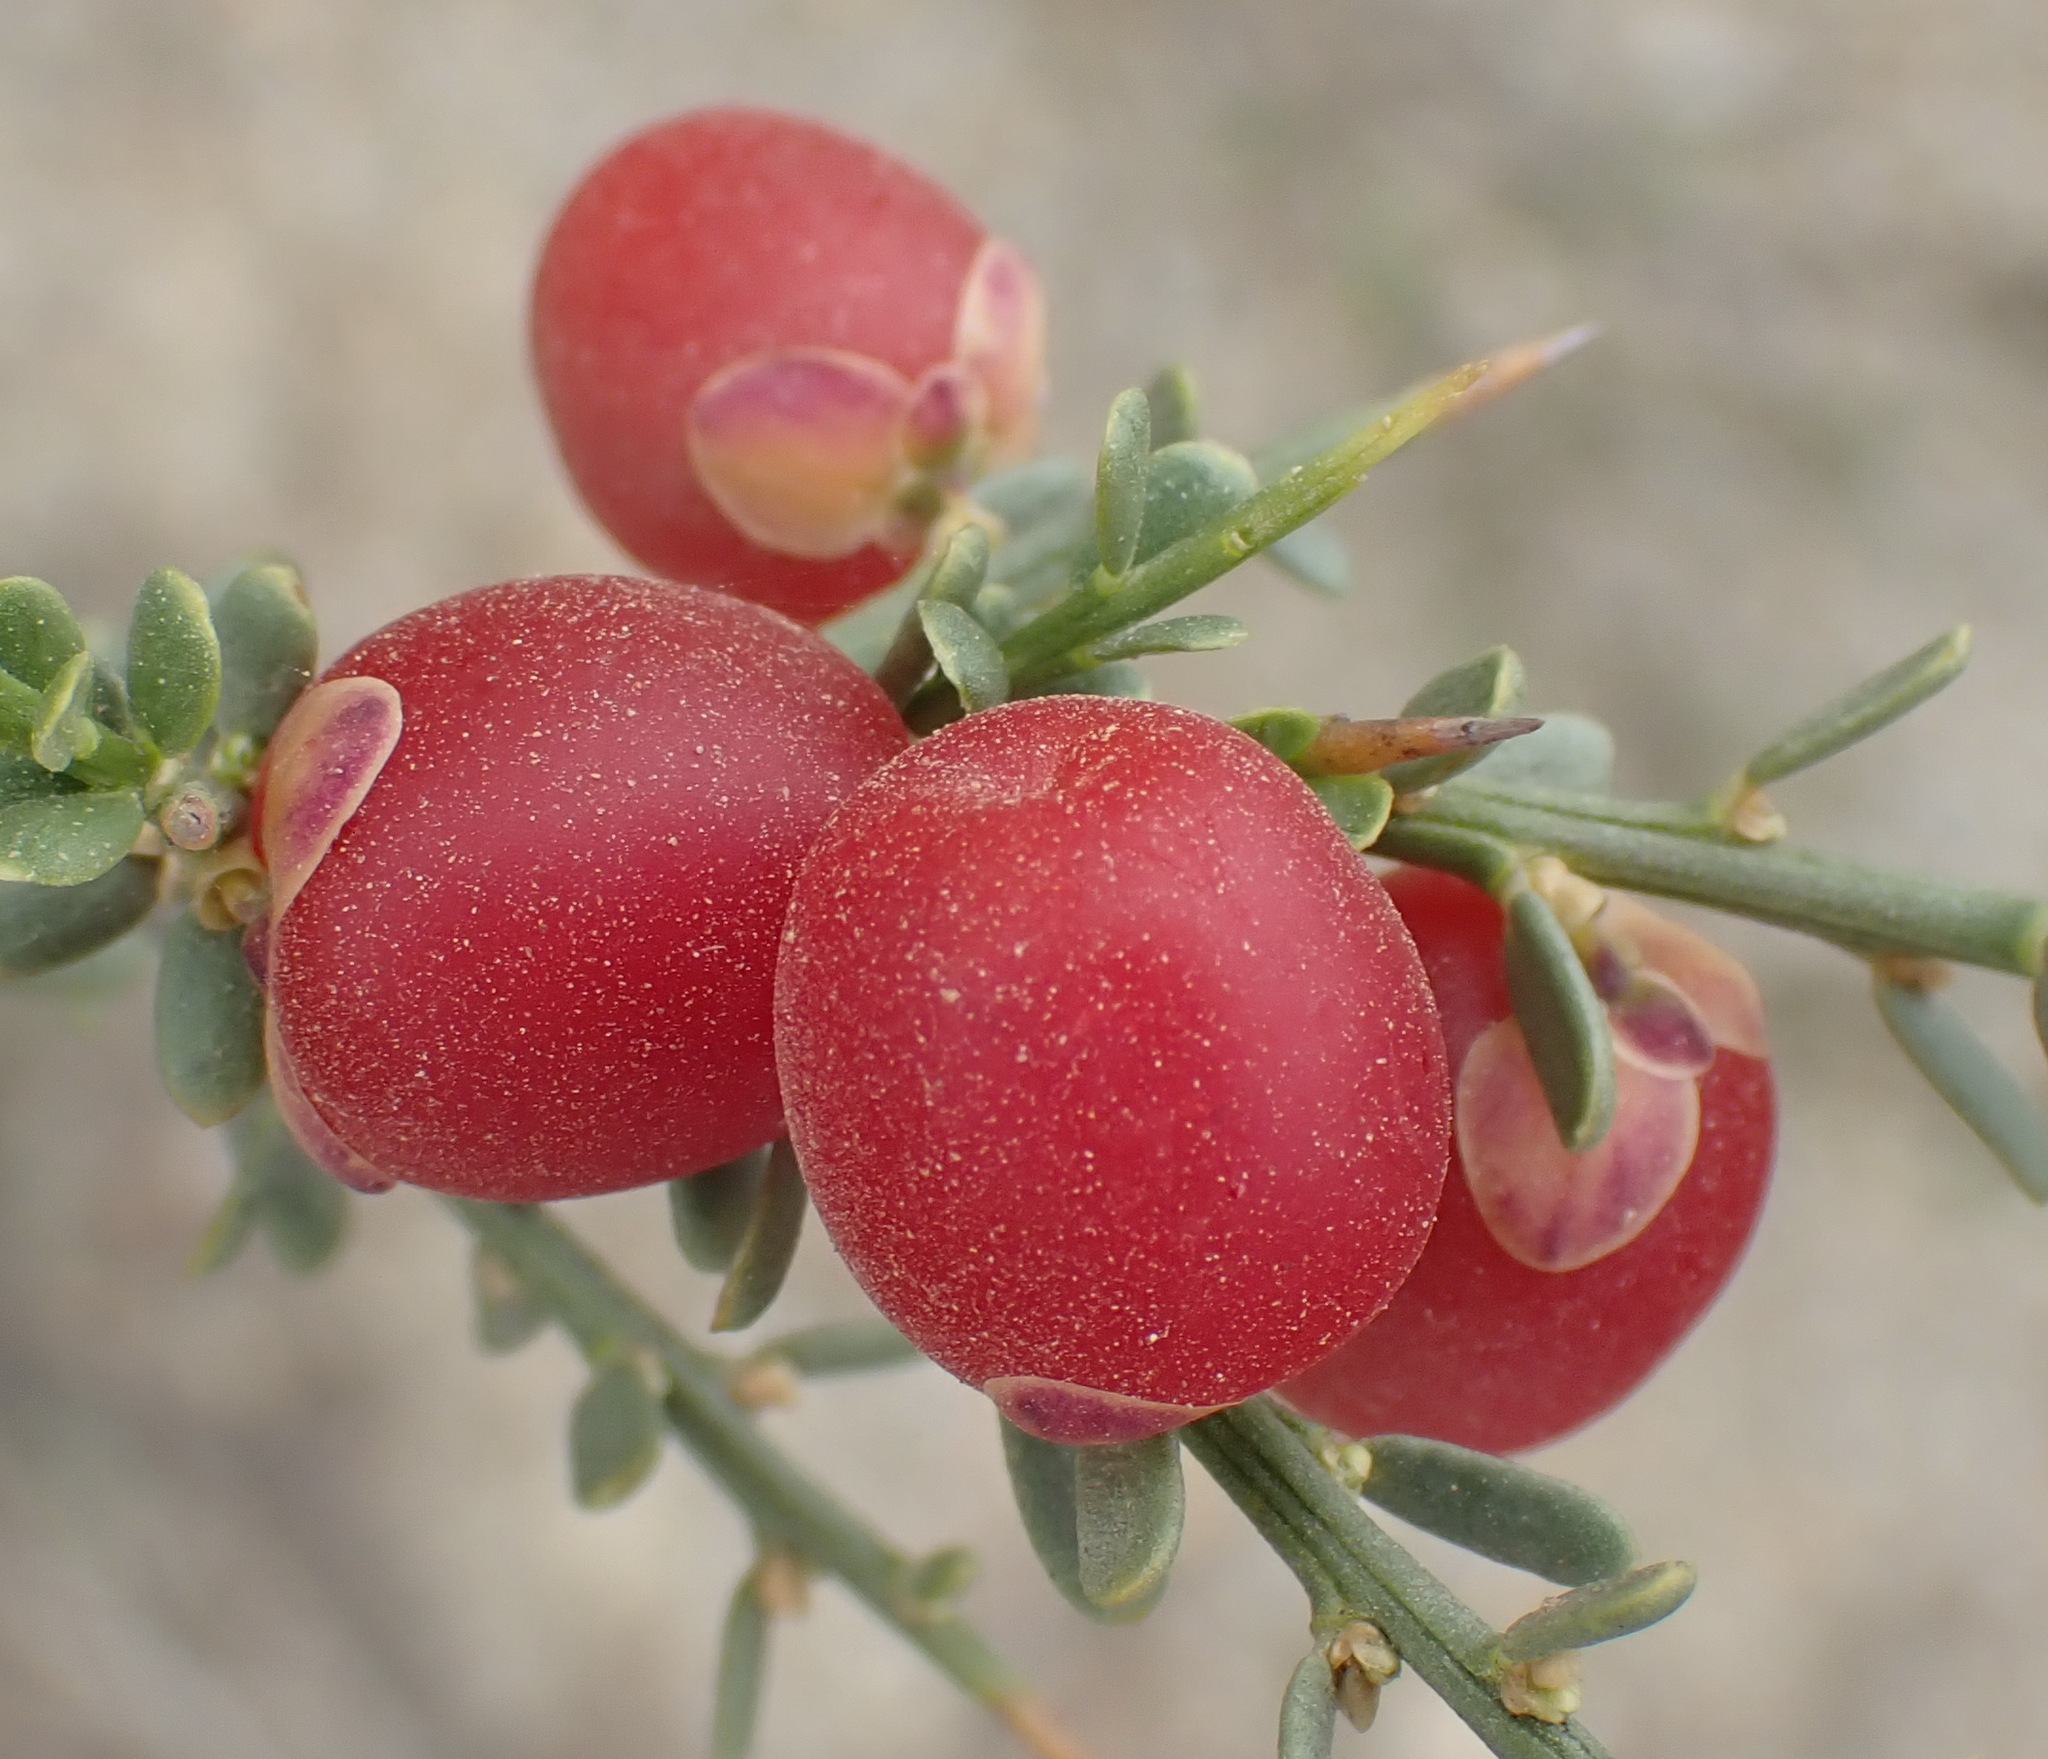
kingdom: Plantae
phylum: Tracheophyta
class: Magnoliopsida
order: Fabales
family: Polygalaceae
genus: Muraltia
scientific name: Muraltia spinosa
